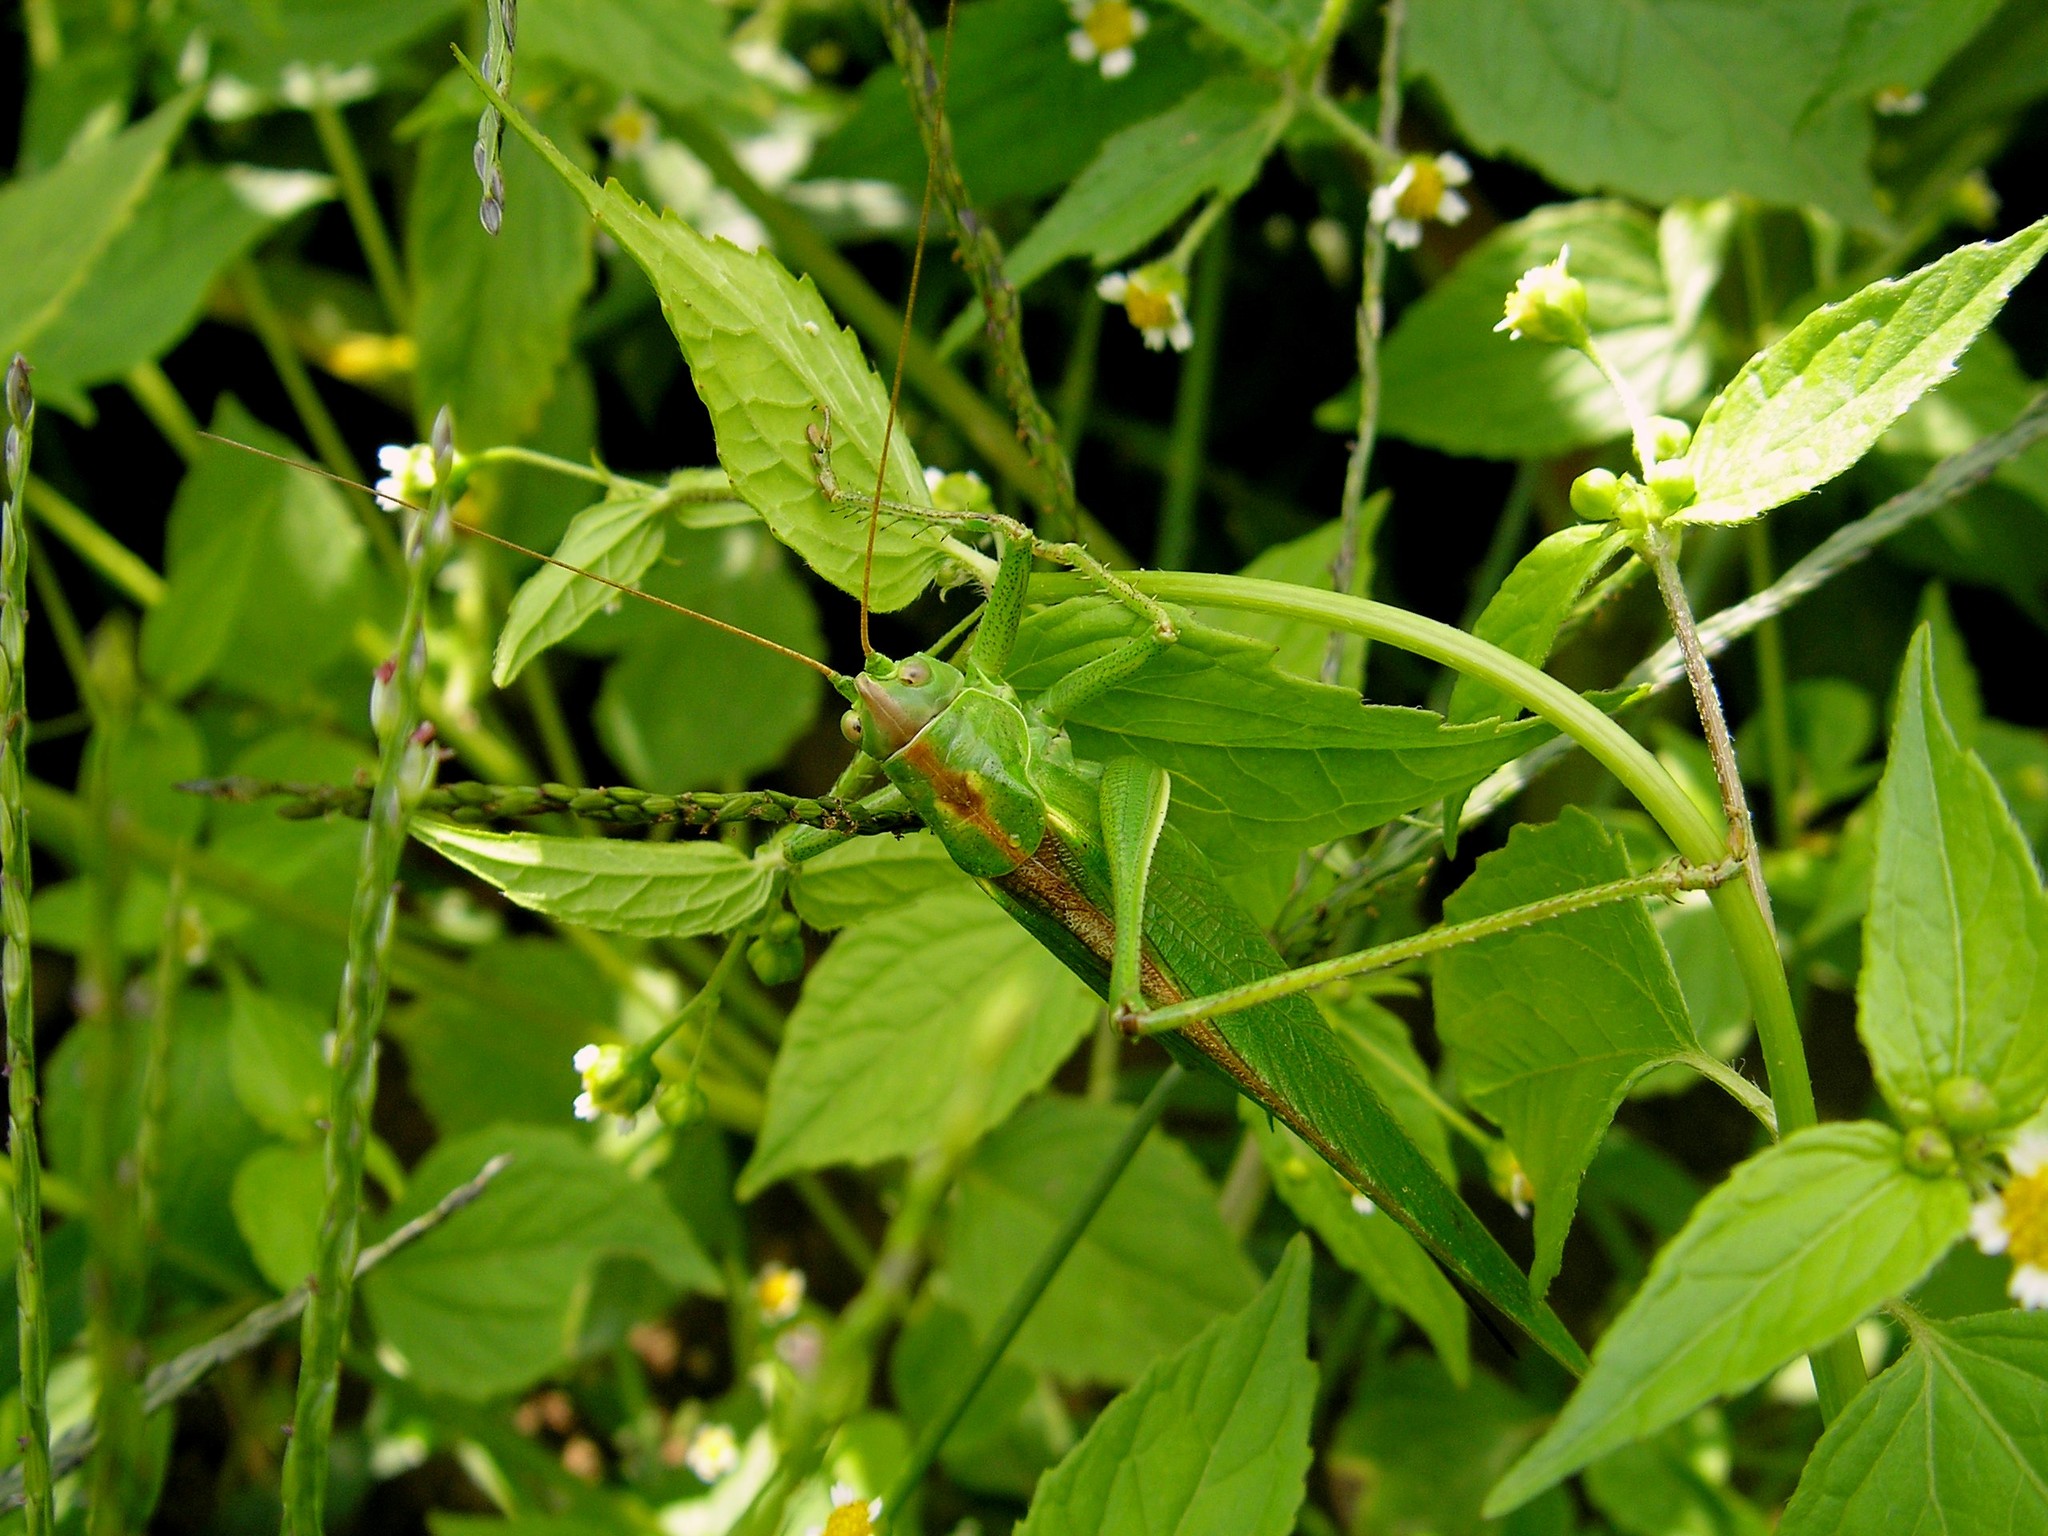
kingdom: Animalia
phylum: Arthropoda
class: Insecta
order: Orthoptera
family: Tettigoniidae
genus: Tettigonia
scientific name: Tettigonia viridissima
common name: Great green bush-cricket
